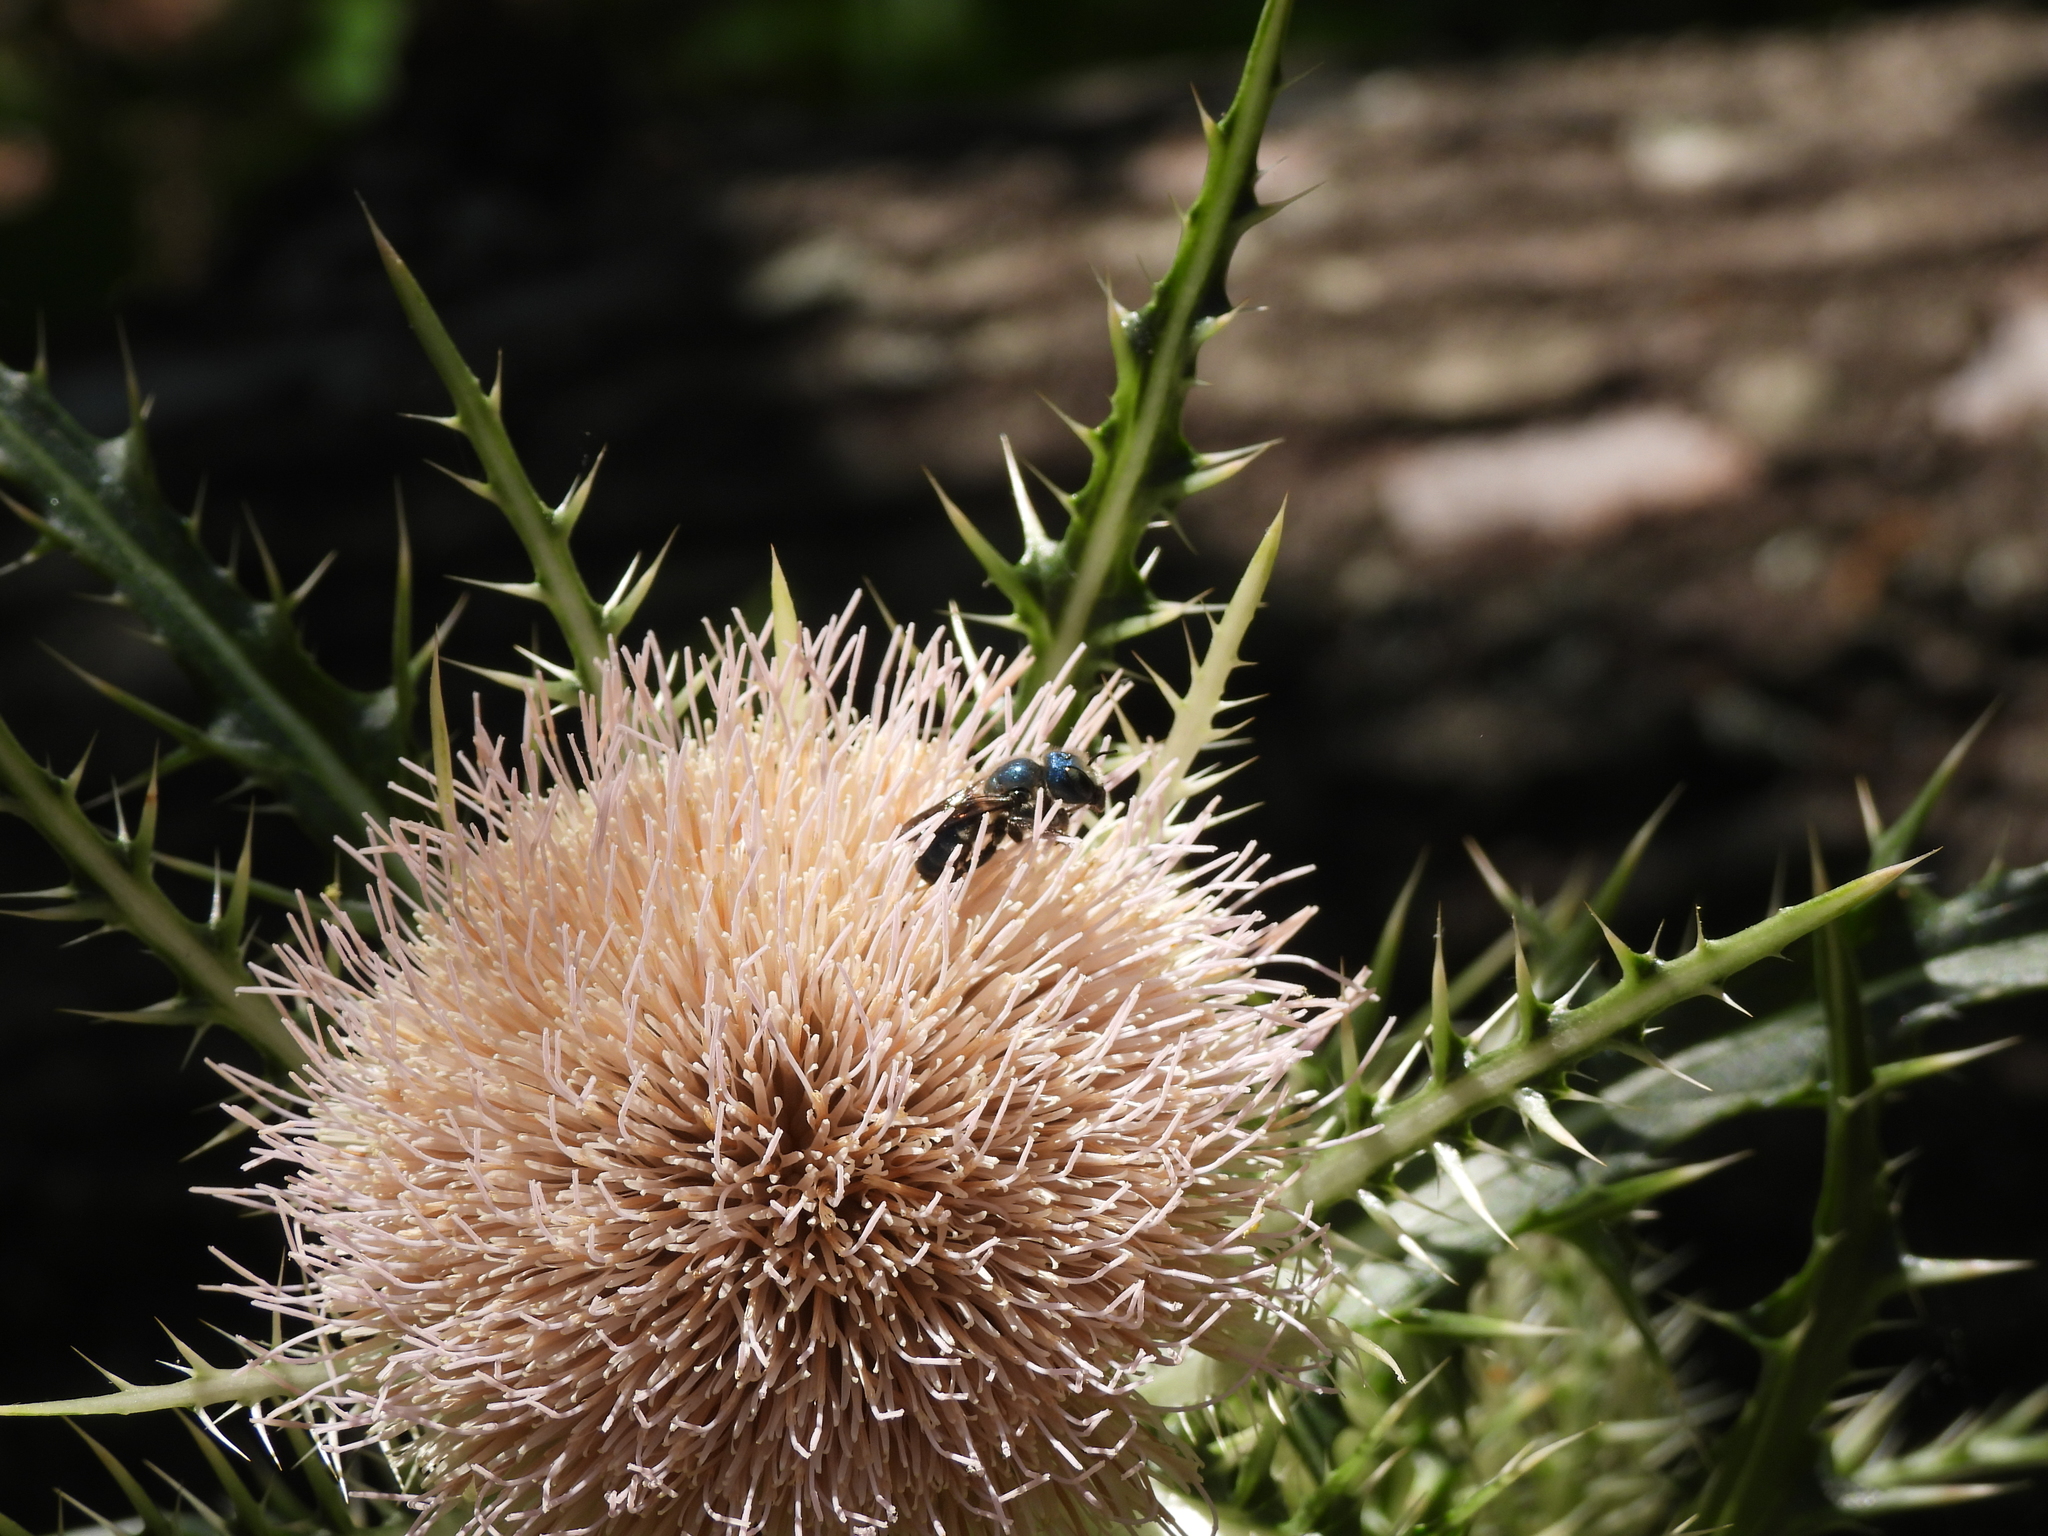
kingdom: Animalia
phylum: Arthropoda
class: Insecta
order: Hymenoptera
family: Megachilidae
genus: Osmia
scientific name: Osmia chalybea
